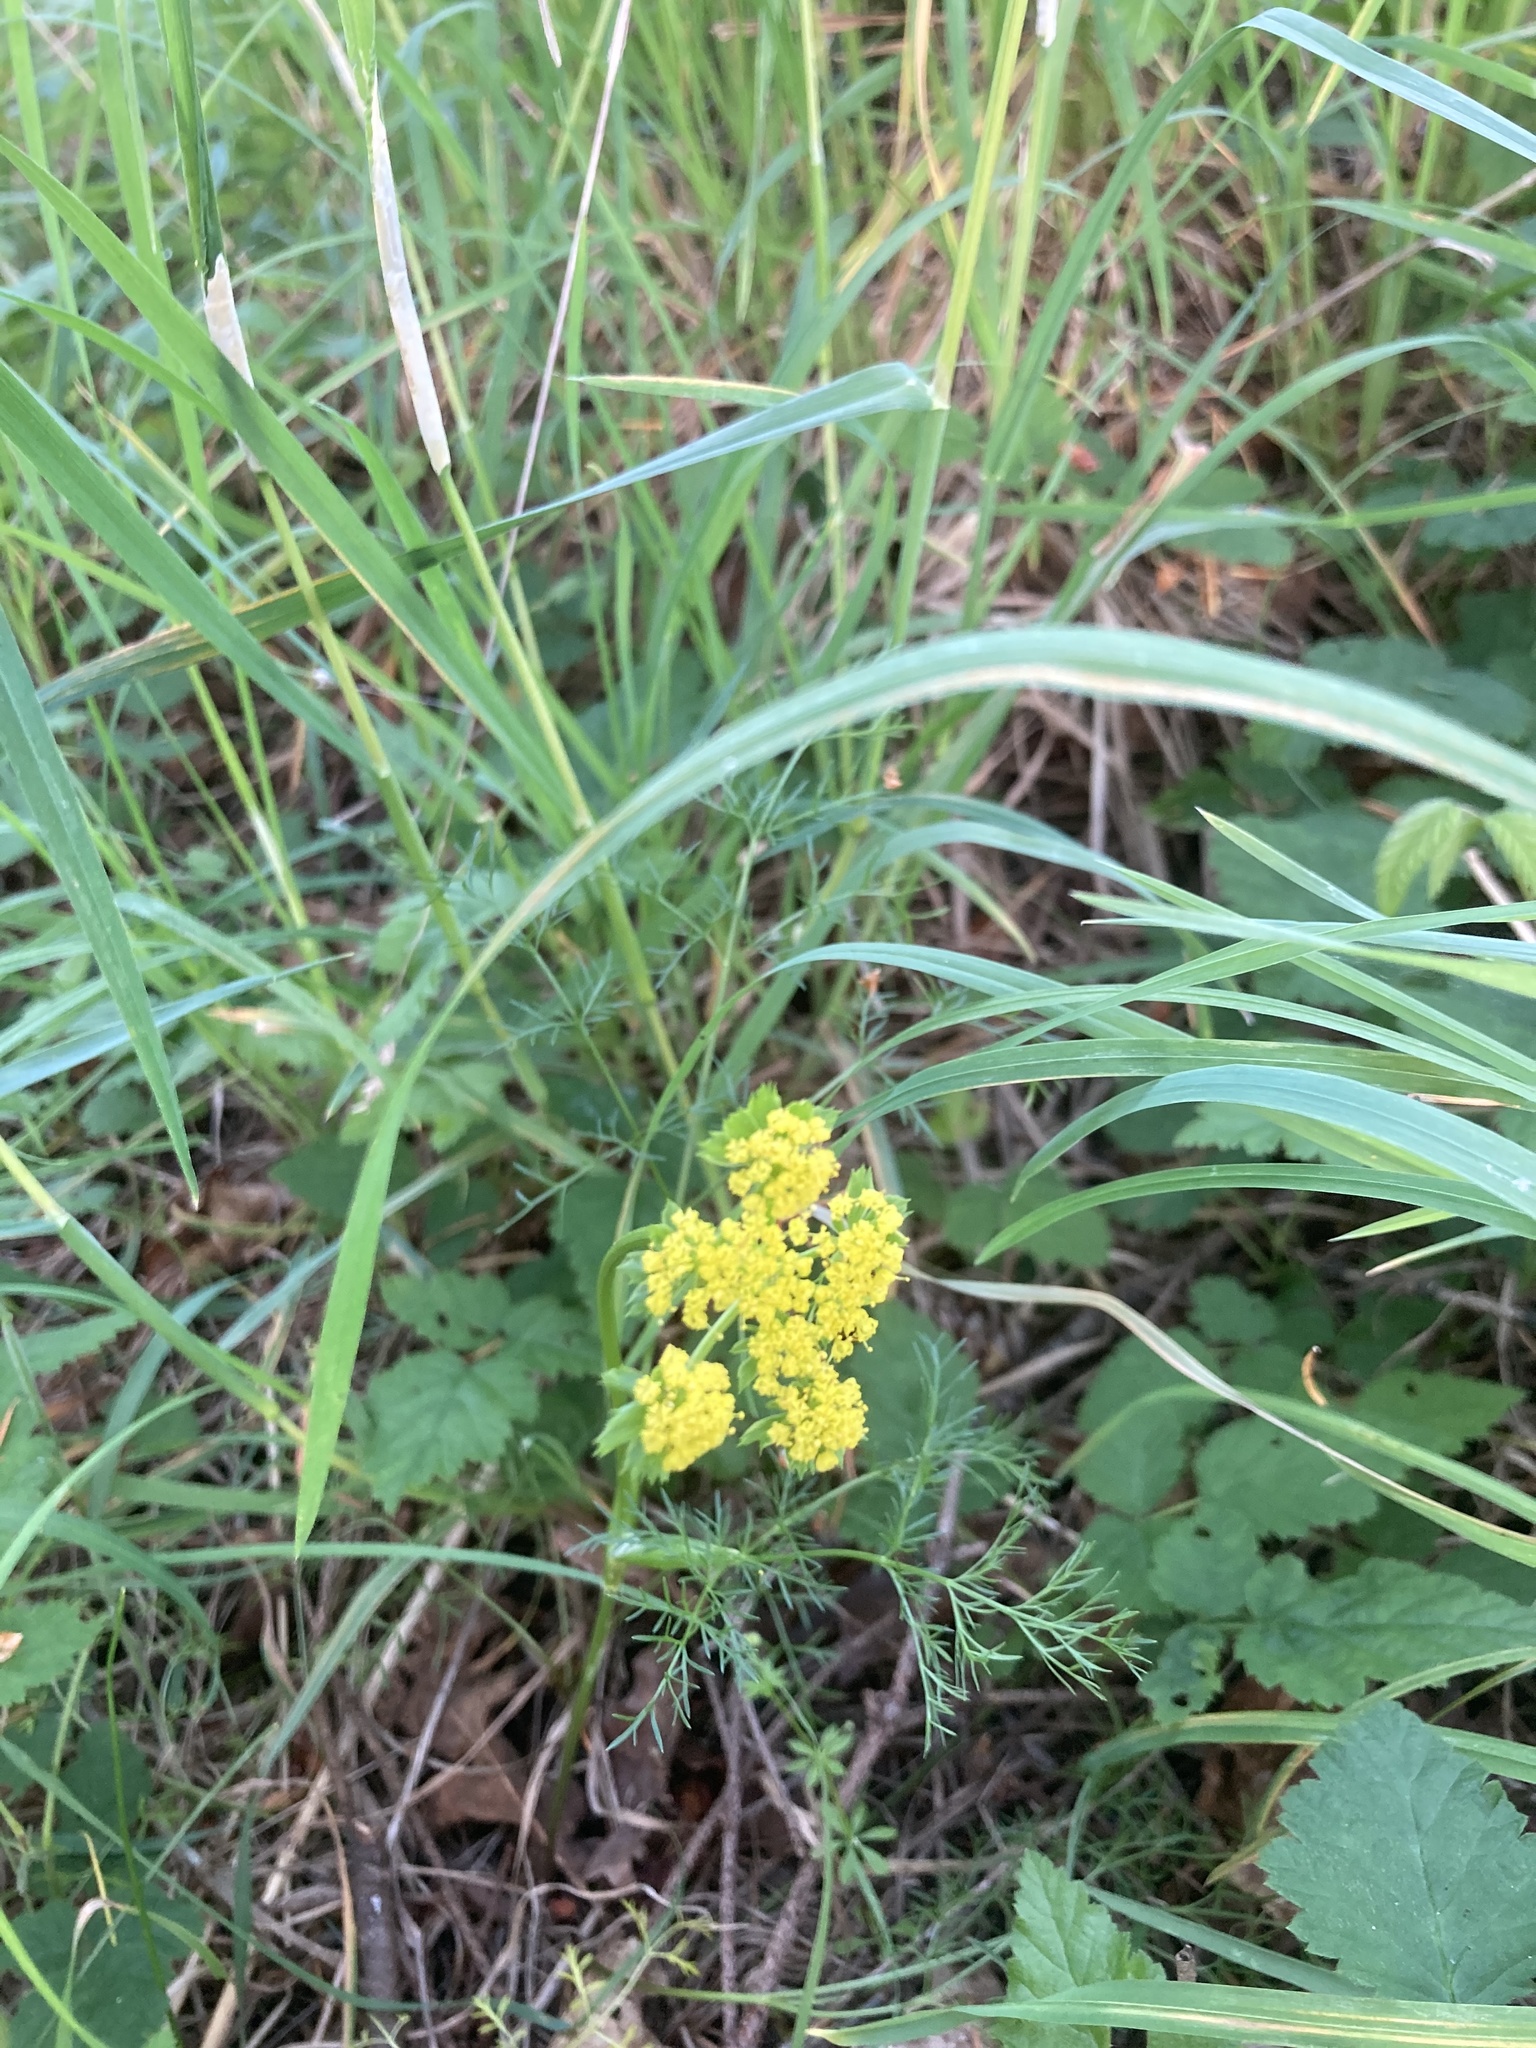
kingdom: Plantae
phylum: Tracheophyta
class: Magnoliopsida
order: Apiales
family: Apiaceae
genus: Lomatium
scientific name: Lomatium utriculatum
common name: Fine-leaf desert-parsley
